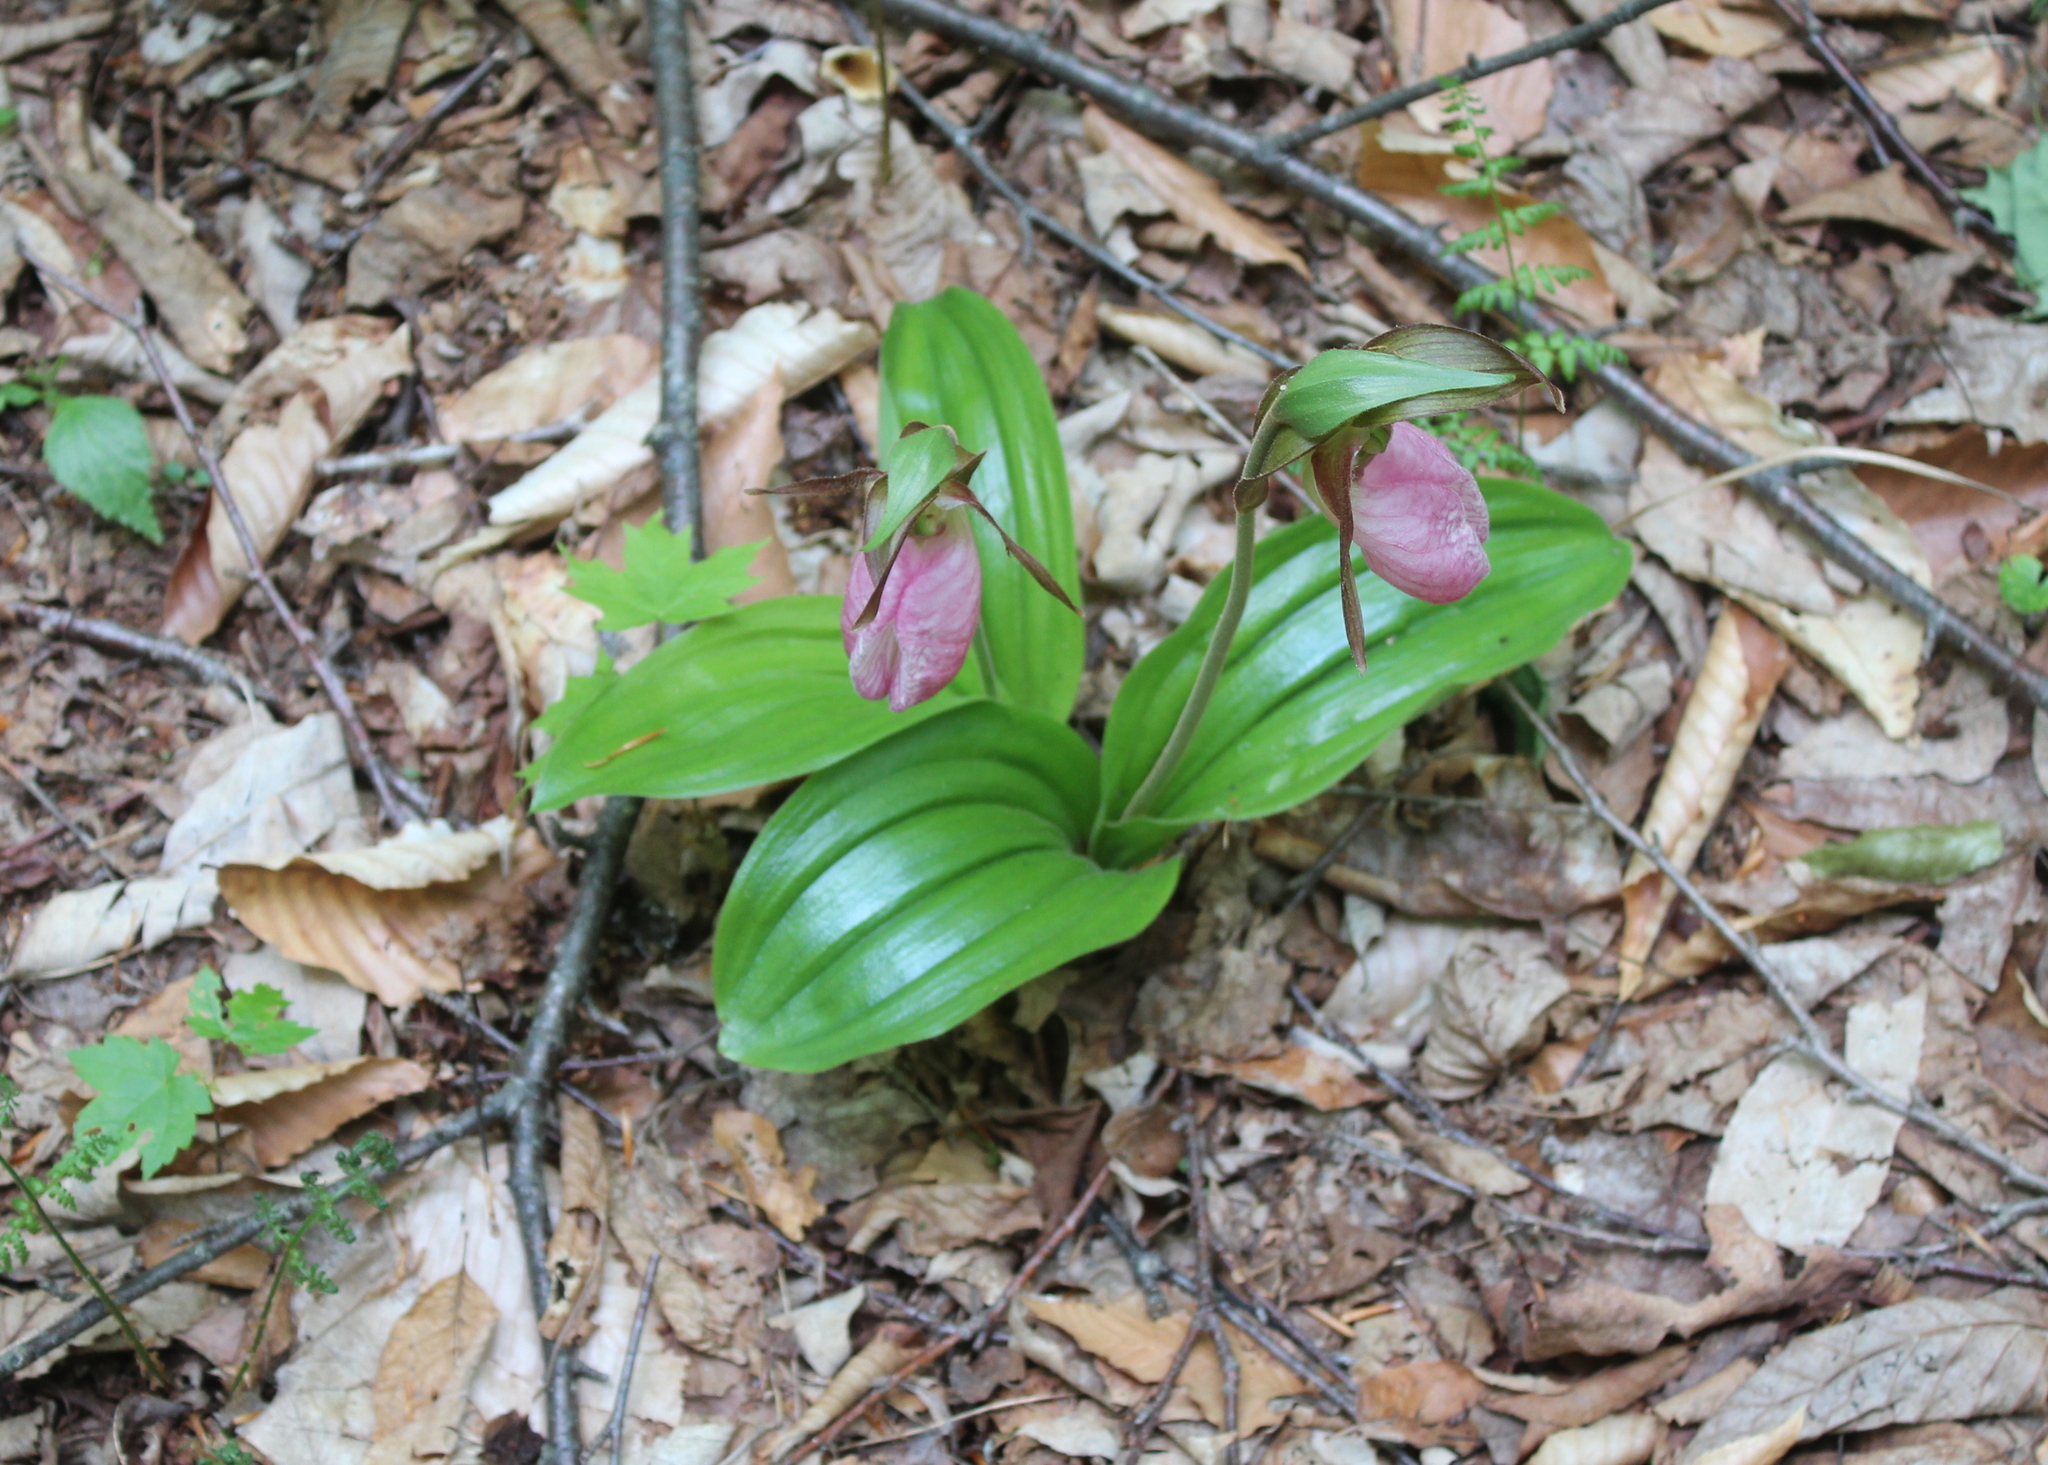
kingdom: Plantae
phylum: Tracheophyta
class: Liliopsida
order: Asparagales
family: Orchidaceae
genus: Cypripedium
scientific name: Cypripedium acaule
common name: Pink lady's-slipper
